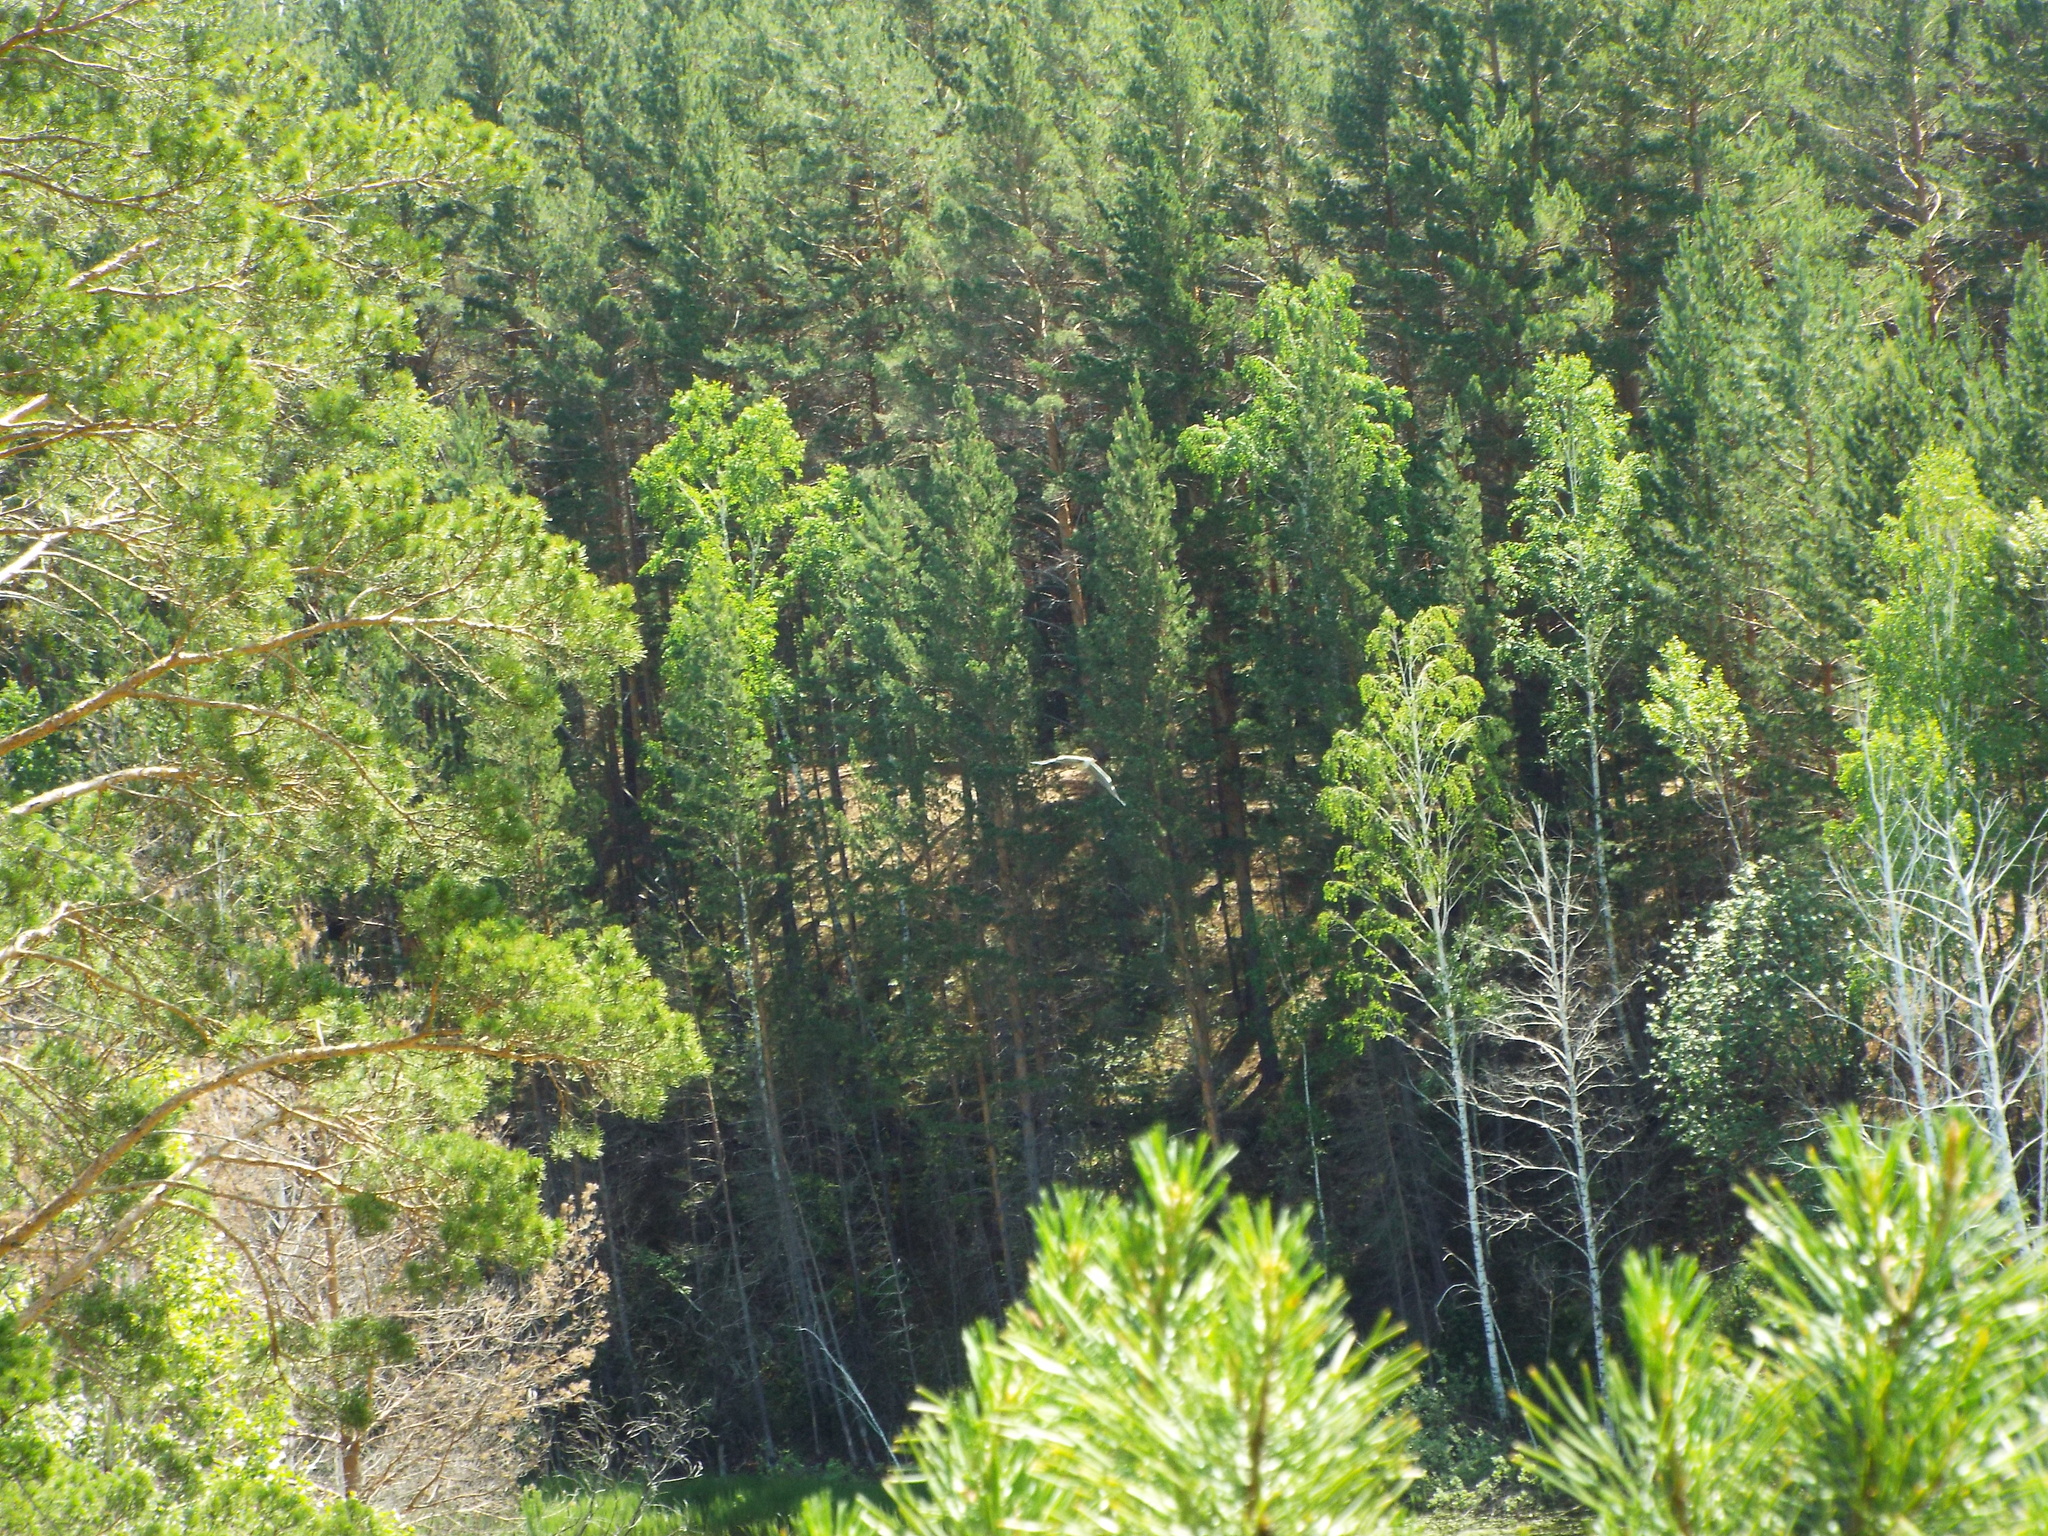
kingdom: Animalia
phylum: Chordata
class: Aves
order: Pelecaniformes
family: Ardeidae
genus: Ardea
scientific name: Ardea cinerea
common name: Grey heron
